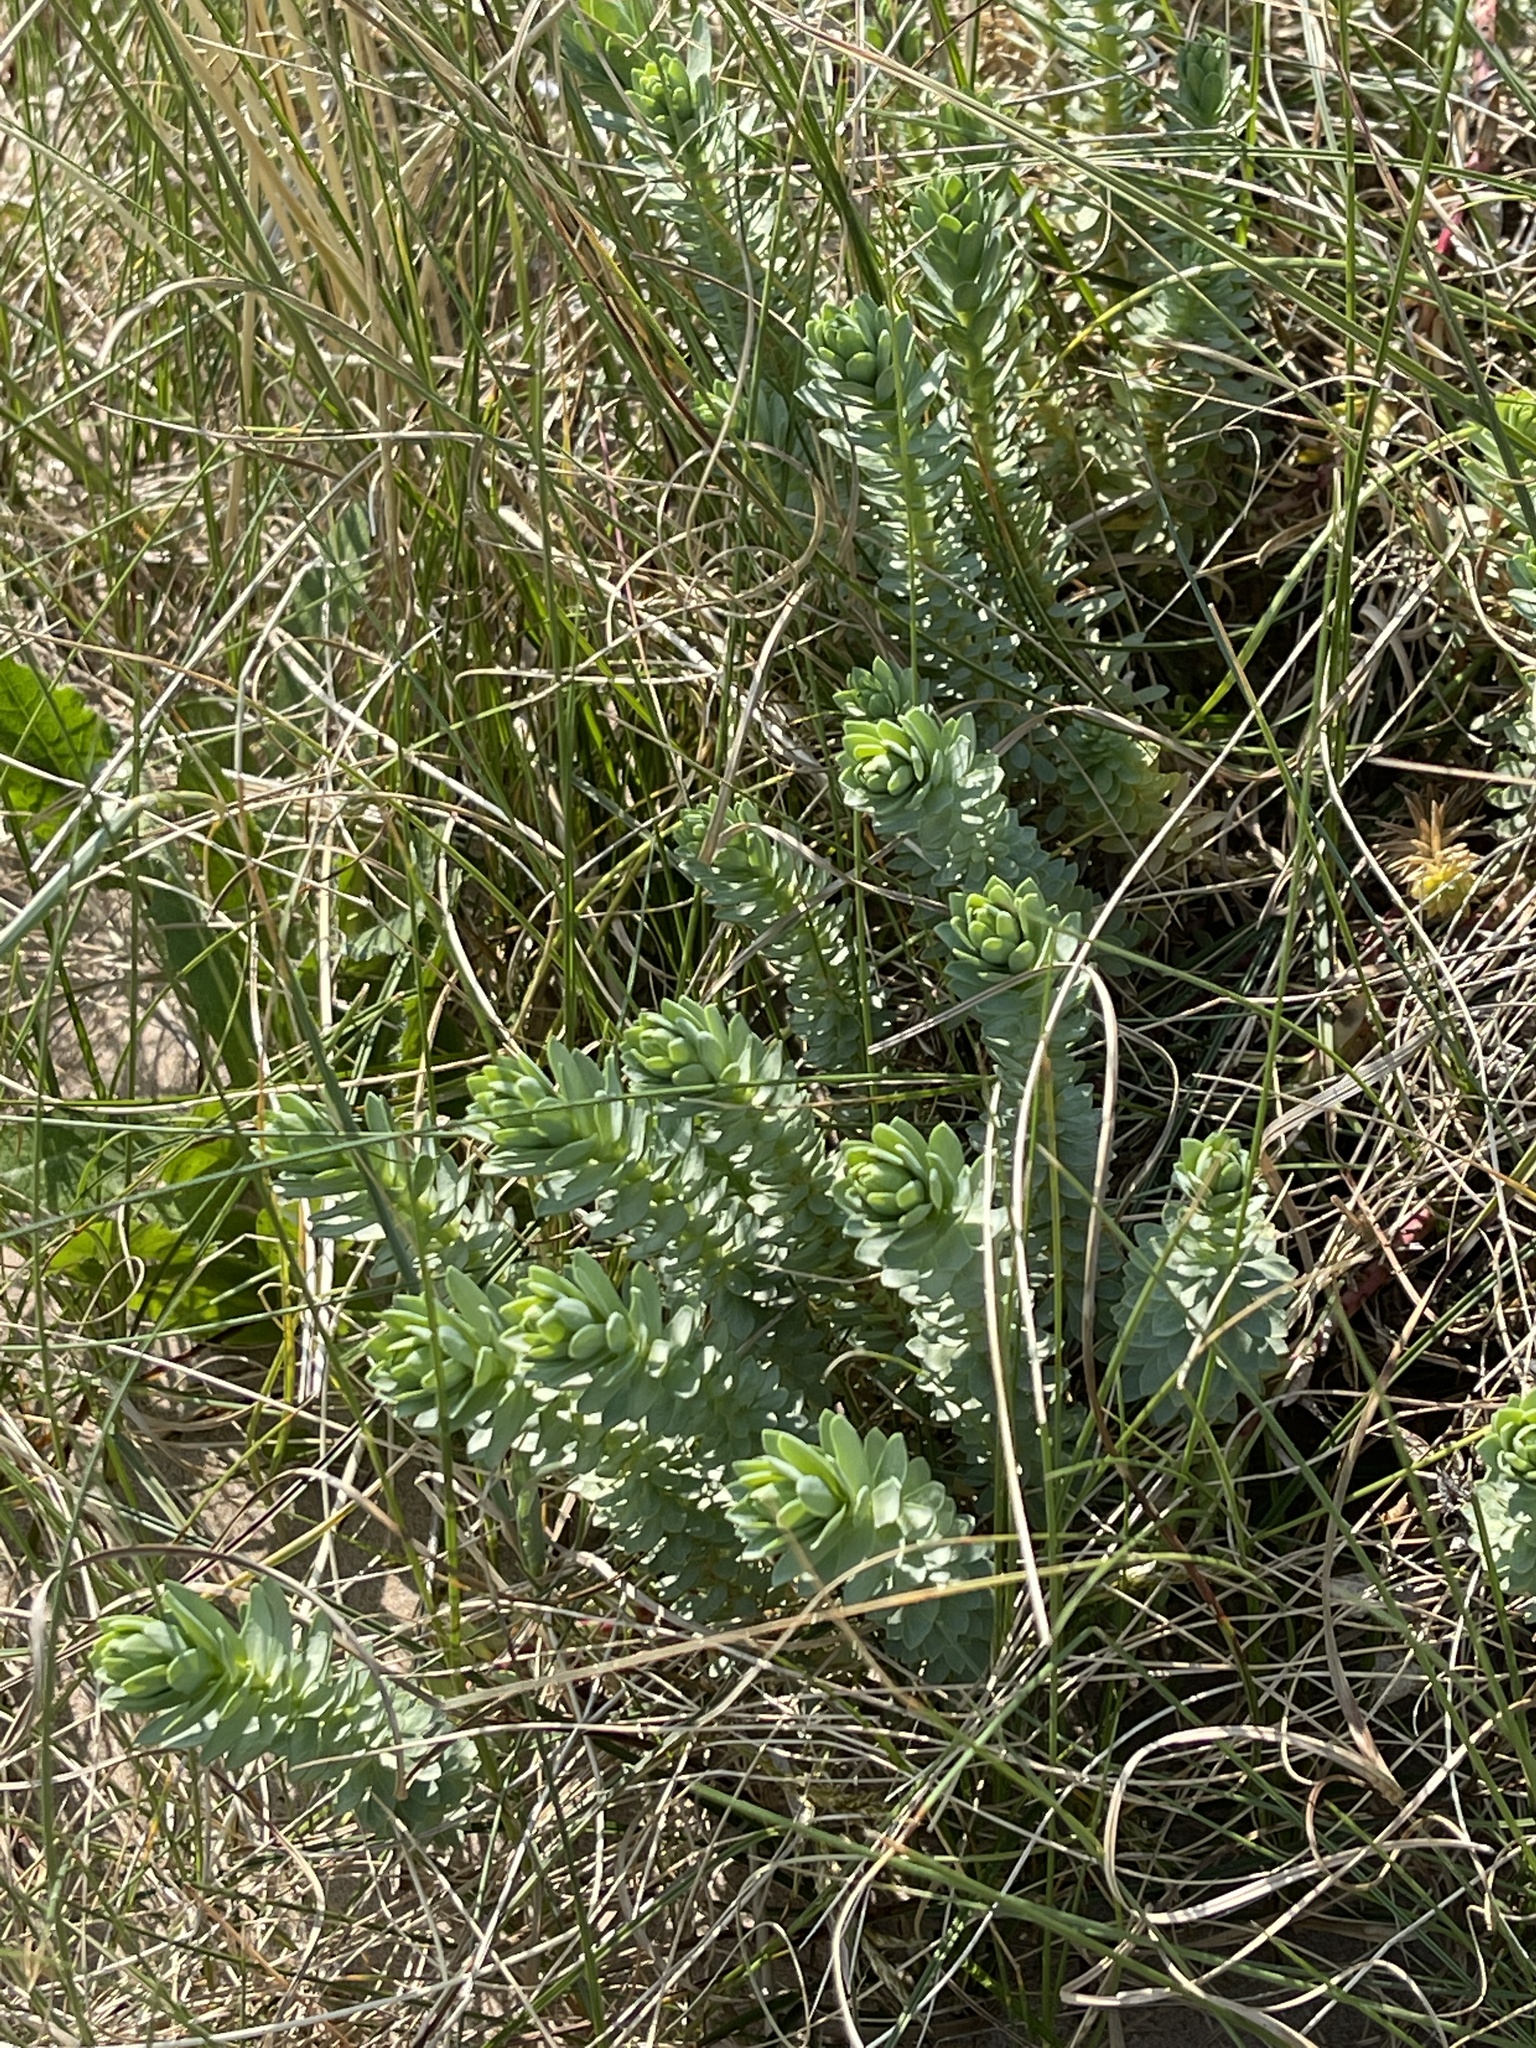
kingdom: Plantae
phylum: Tracheophyta
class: Magnoliopsida
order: Malpighiales
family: Euphorbiaceae
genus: Euphorbia
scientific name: Euphorbia paralias
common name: Sea spurge
